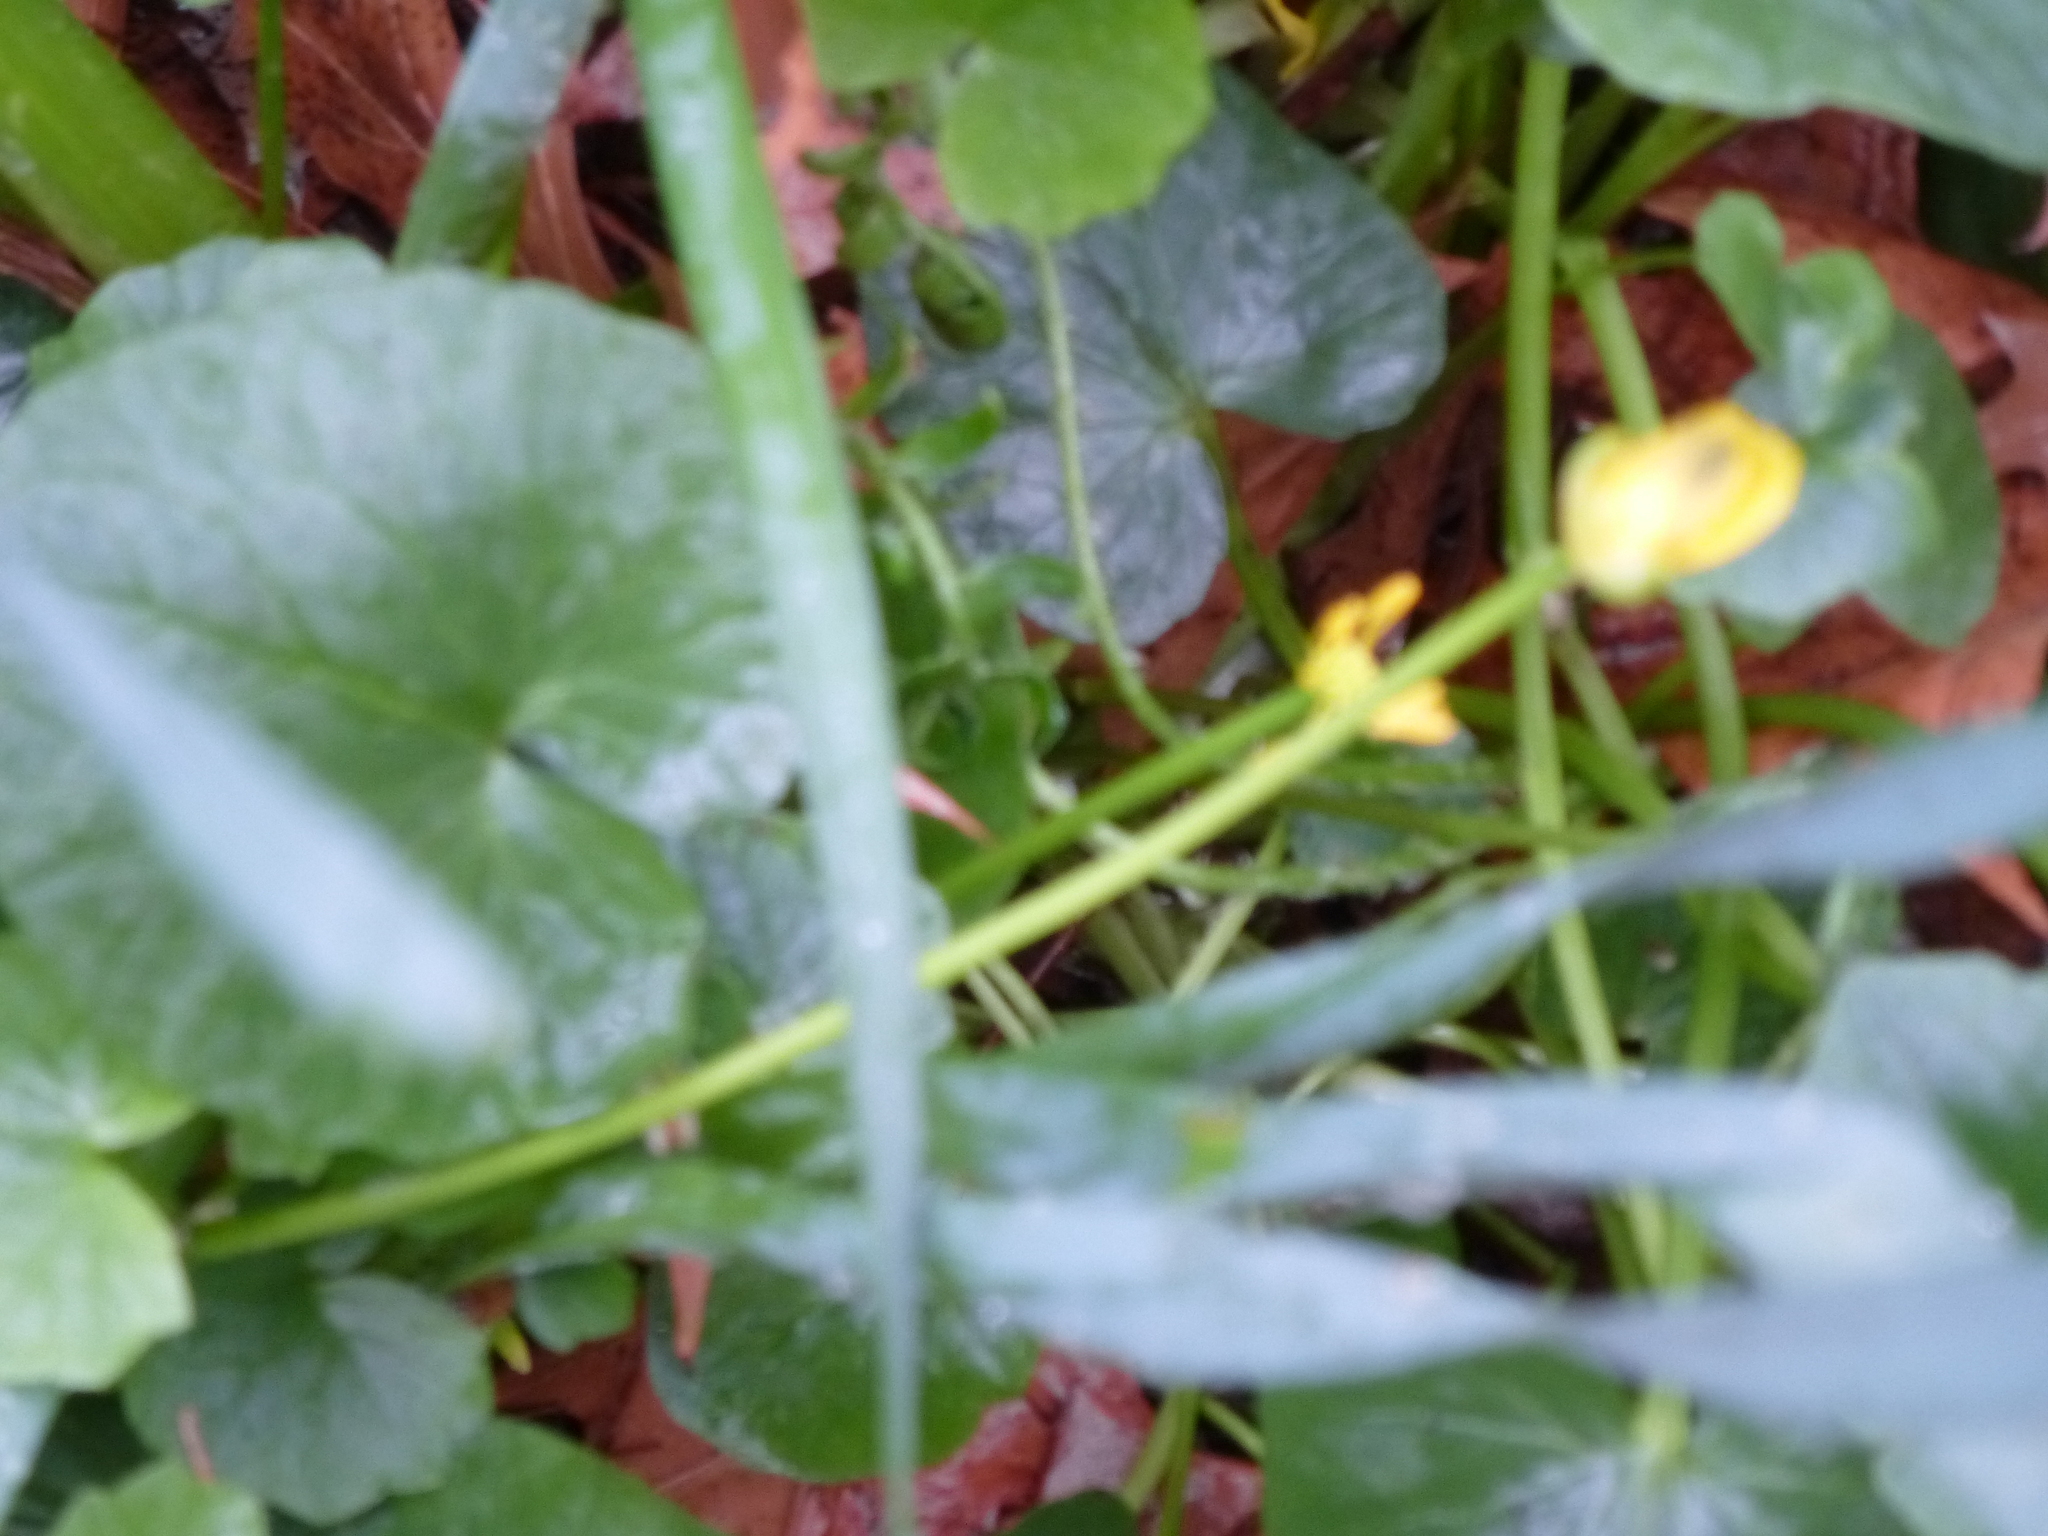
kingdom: Plantae
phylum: Tracheophyta
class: Magnoliopsida
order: Ranunculales
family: Ranunculaceae
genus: Ficaria
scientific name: Ficaria verna
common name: Lesser celandine
